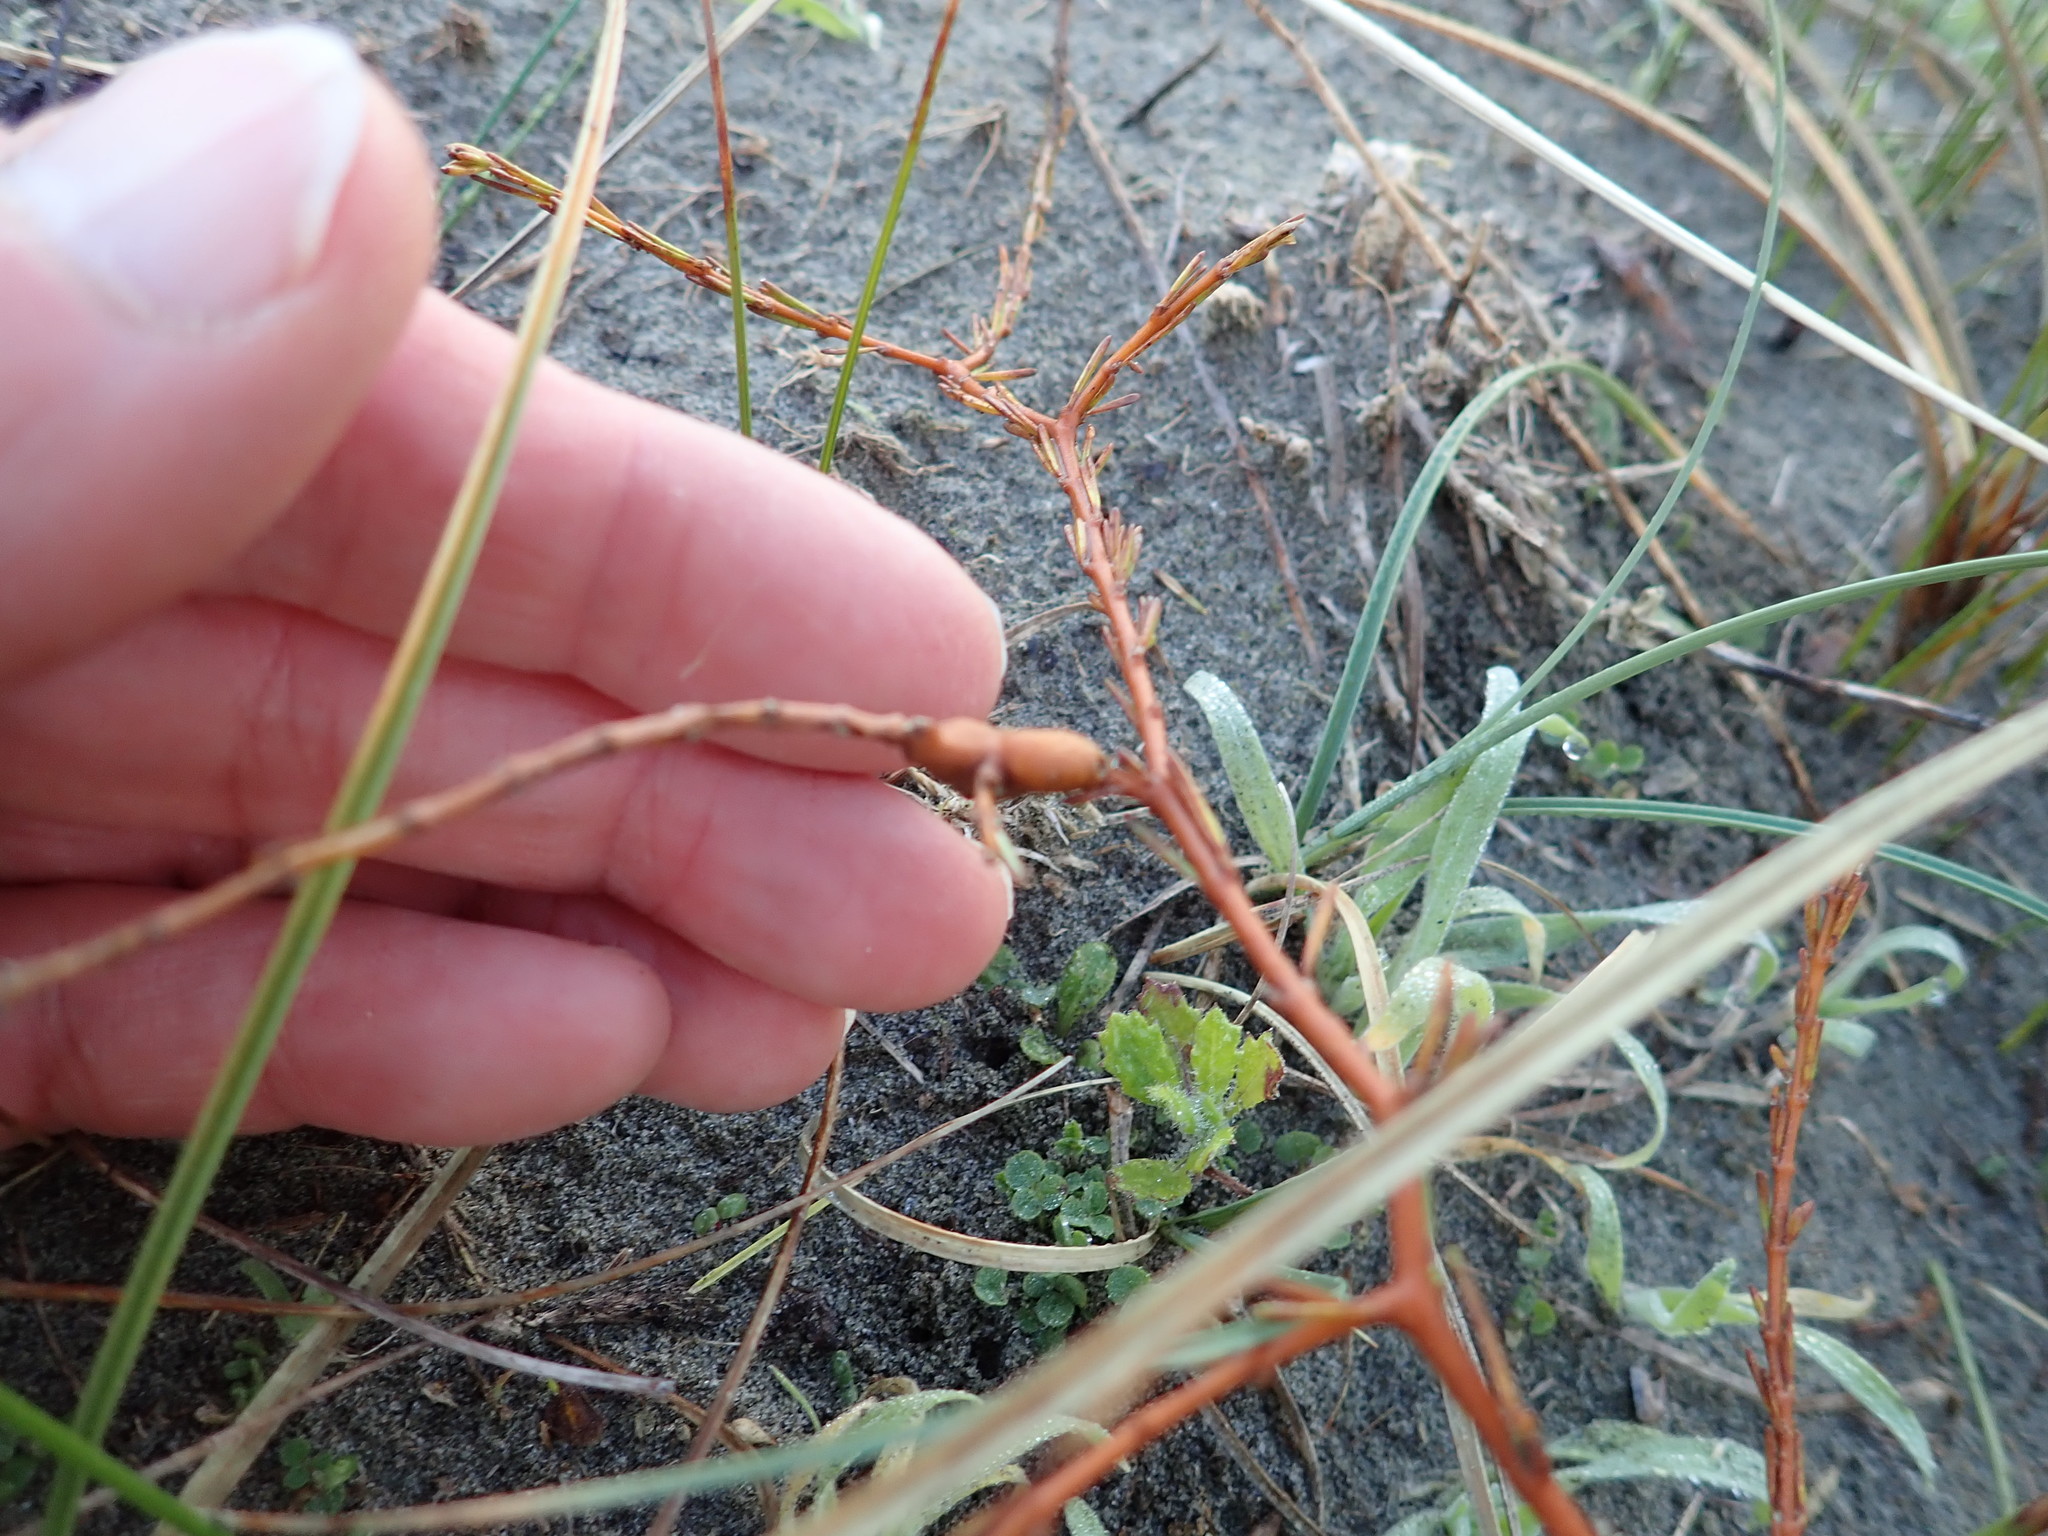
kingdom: Plantae
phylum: Tracheophyta
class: Magnoliopsida
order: Gentianales
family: Rubiaceae
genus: Coprosma
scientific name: Coprosma acerosa
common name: Sand coprosma
